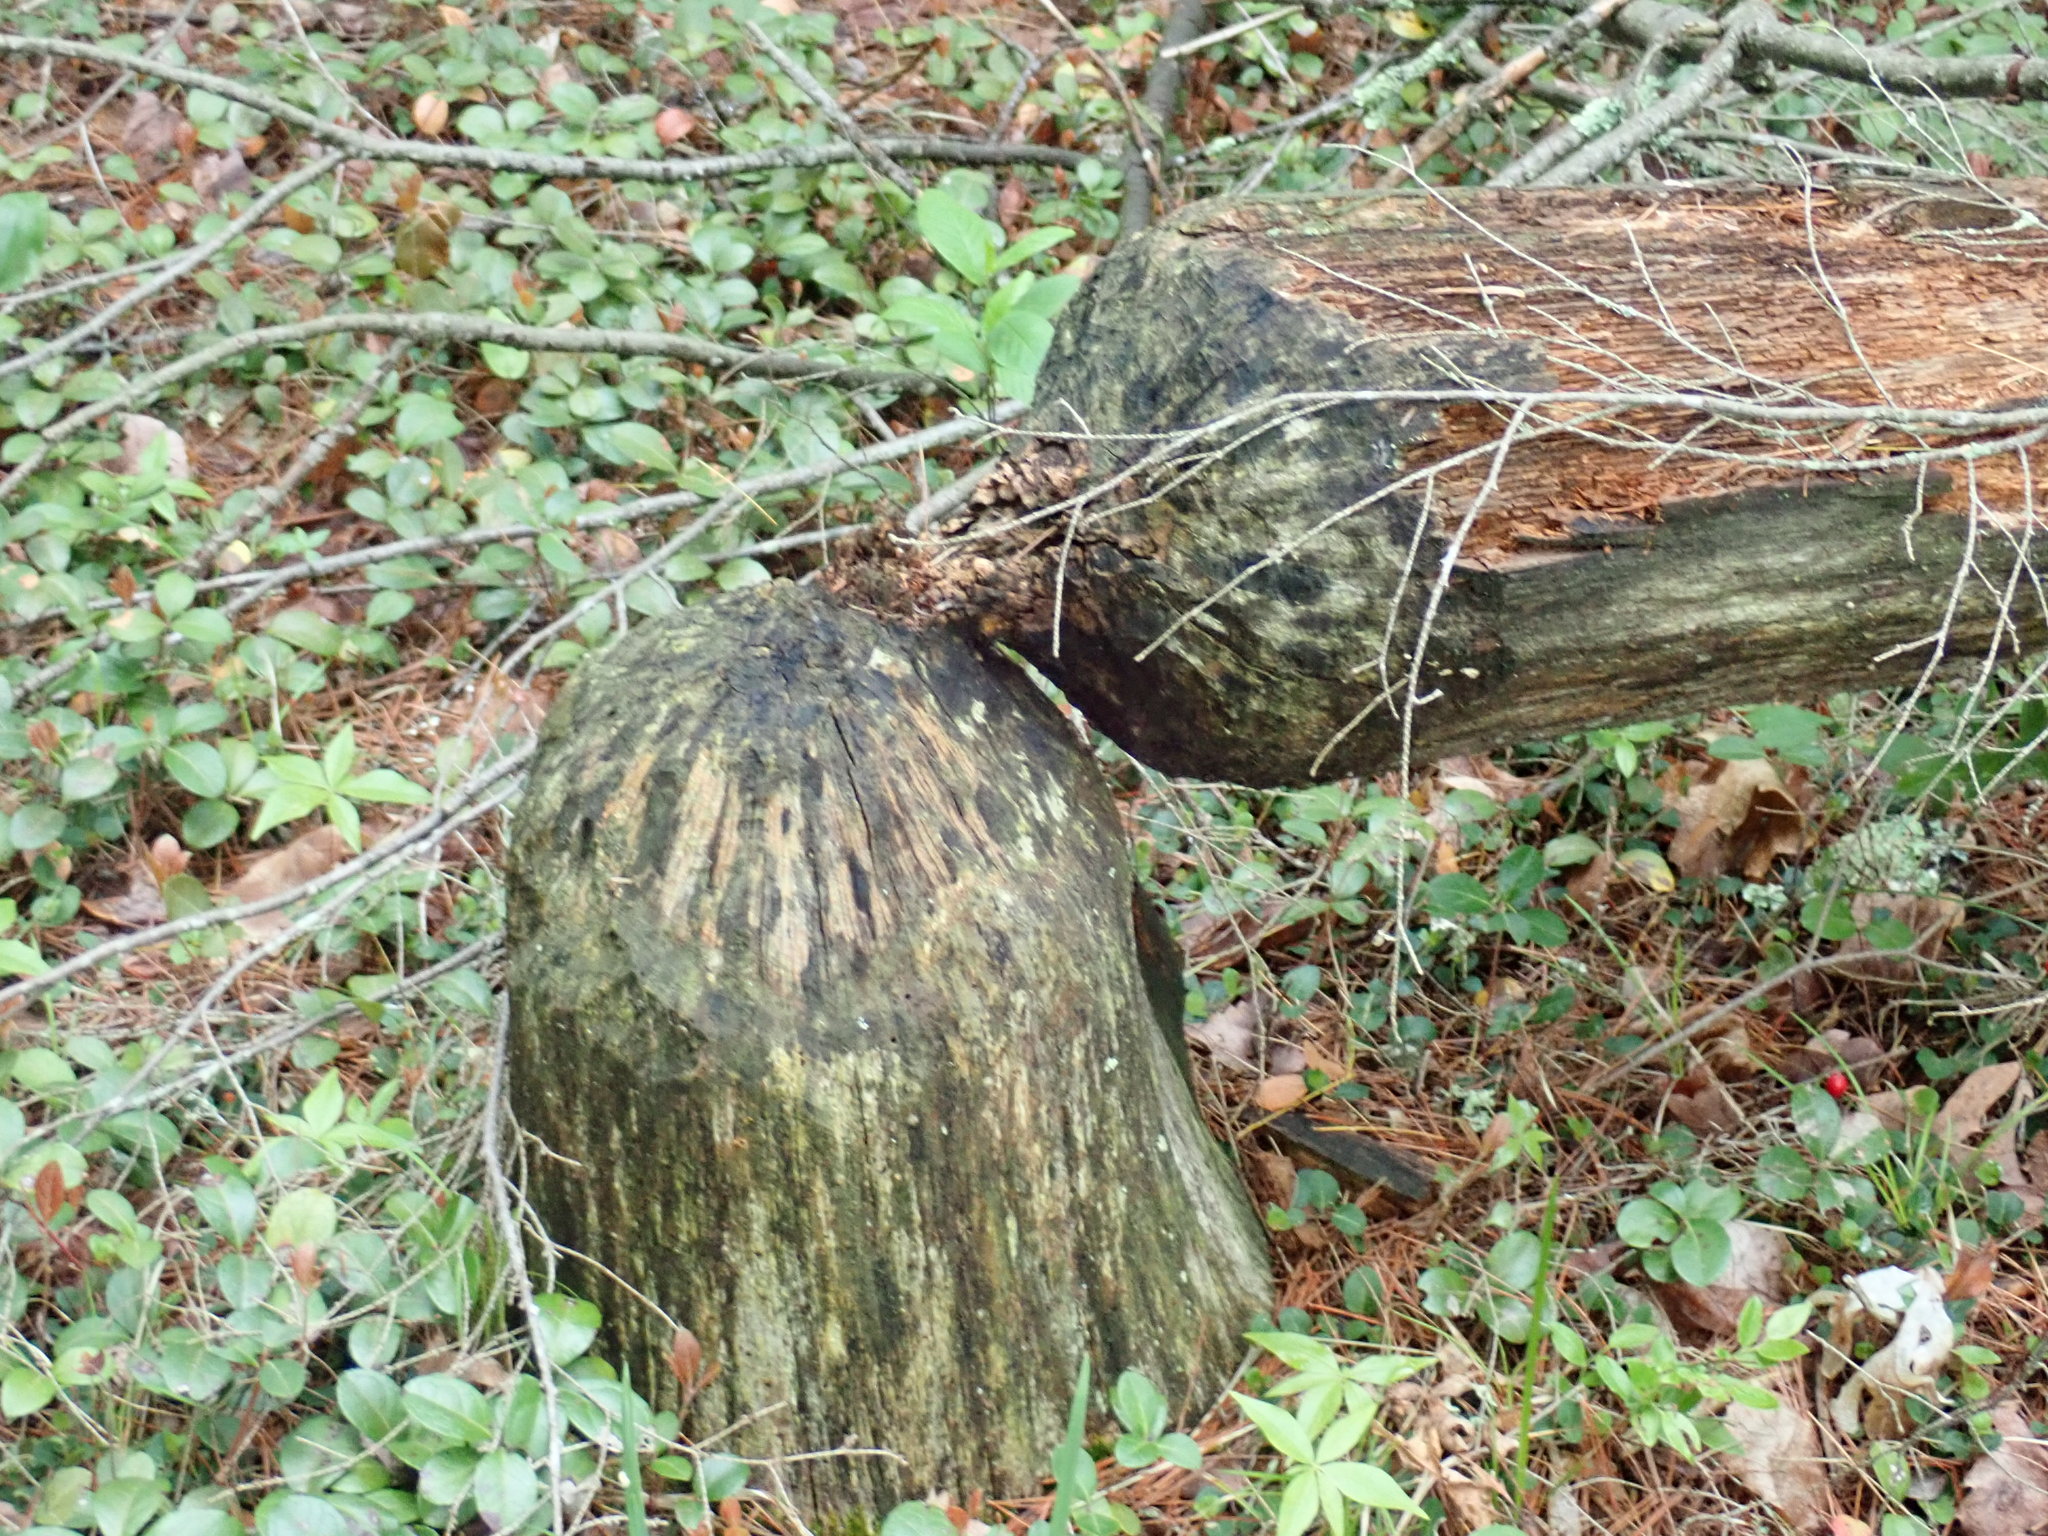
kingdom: Animalia
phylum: Chordata
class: Mammalia
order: Rodentia
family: Castoridae
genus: Castor
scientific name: Castor canadensis
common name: American beaver
